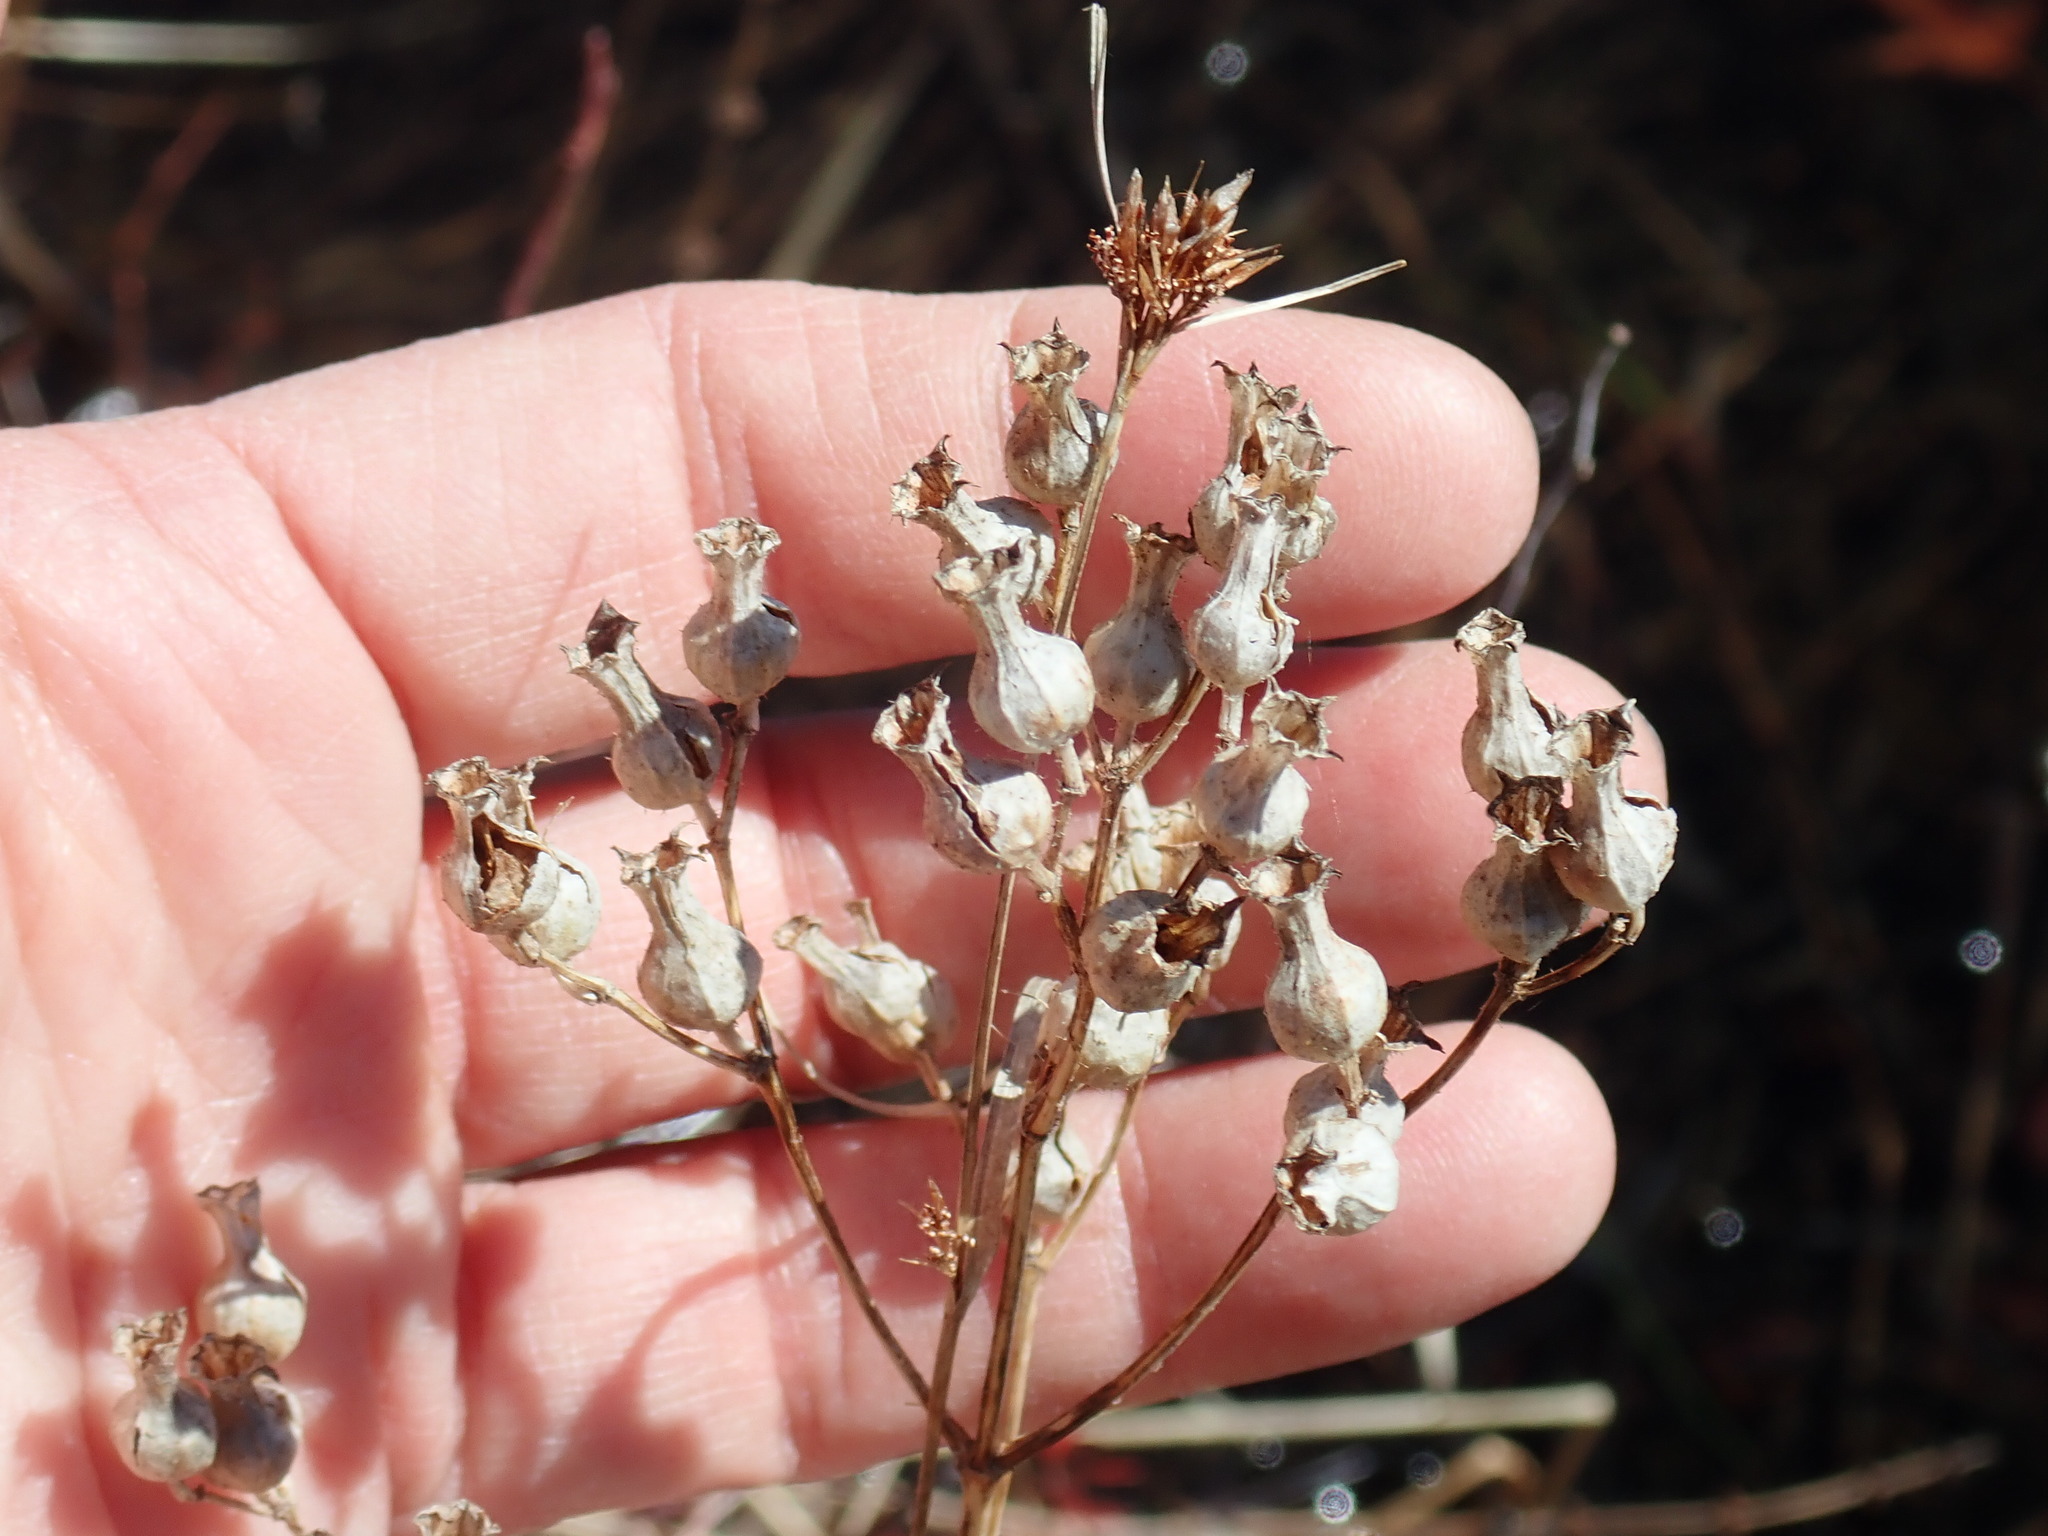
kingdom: Plantae
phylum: Tracheophyta
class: Magnoliopsida
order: Myrtales
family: Melastomataceae
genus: Rhexia
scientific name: Rhexia virginica
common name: Common meadow beauty
